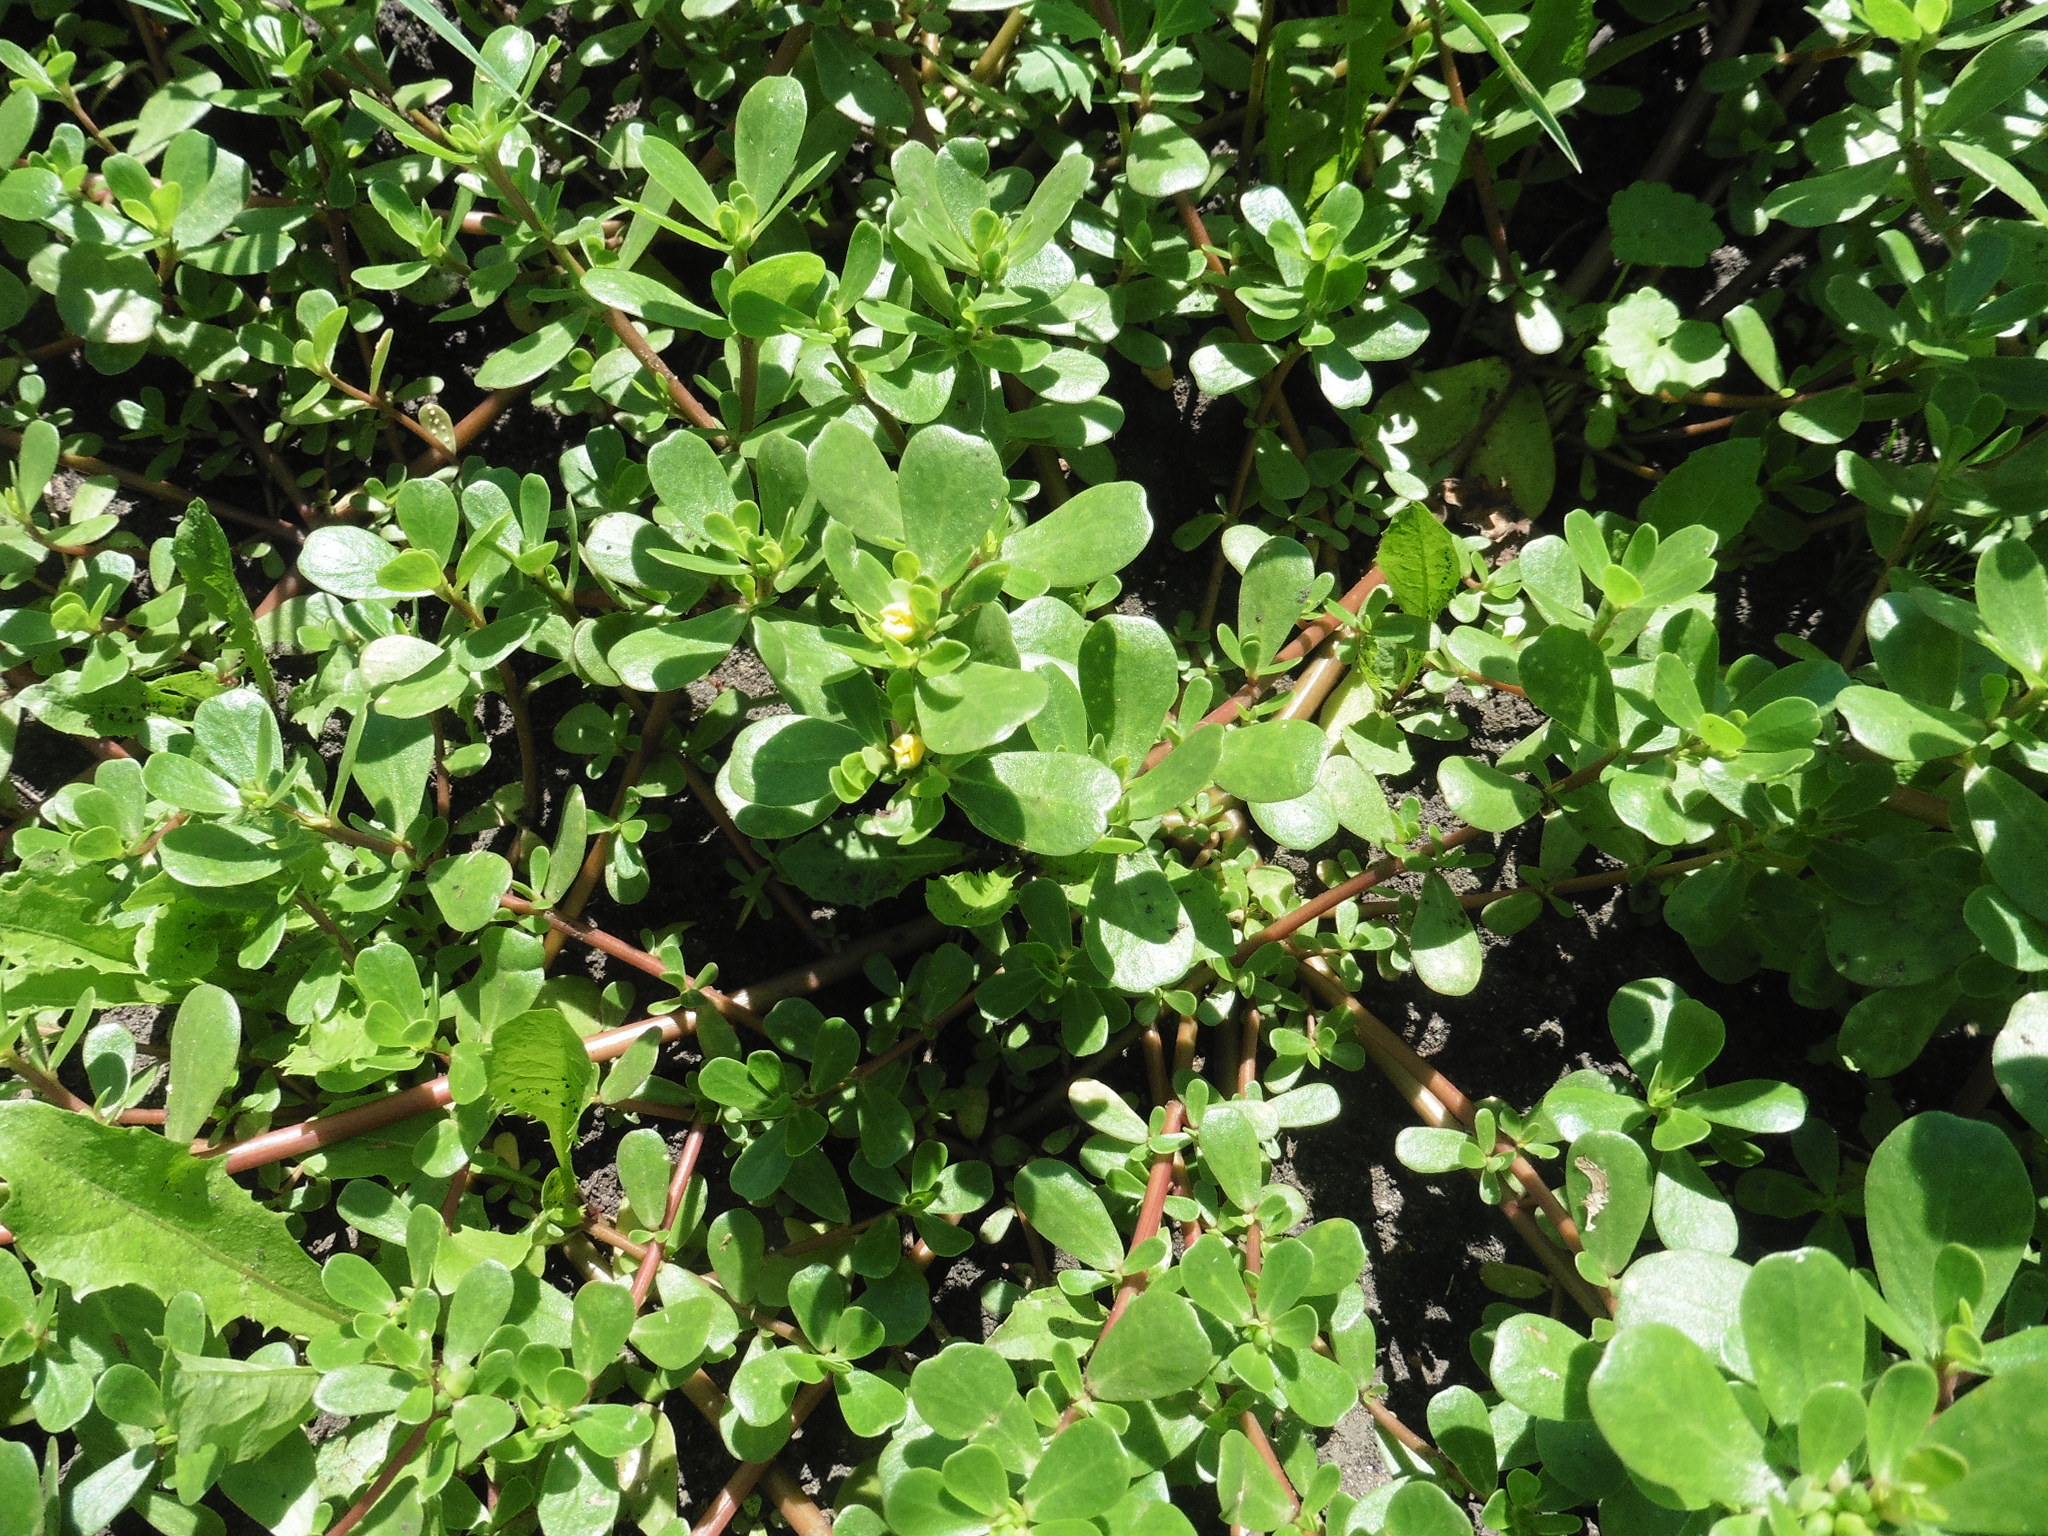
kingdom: Plantae
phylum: Tracheophyta
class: Magnoliopsida
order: Caryophyllales
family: Portulacaceae
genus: Portulaca
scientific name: Portulaca oleracea
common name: Common purslane
